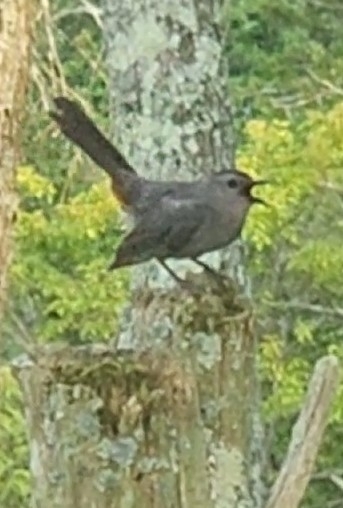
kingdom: Animalia
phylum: Chordata
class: Aves
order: Passeriformes
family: Mimidae
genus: Dumetella
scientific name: Dumetella carolinensis
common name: Gray catbird
